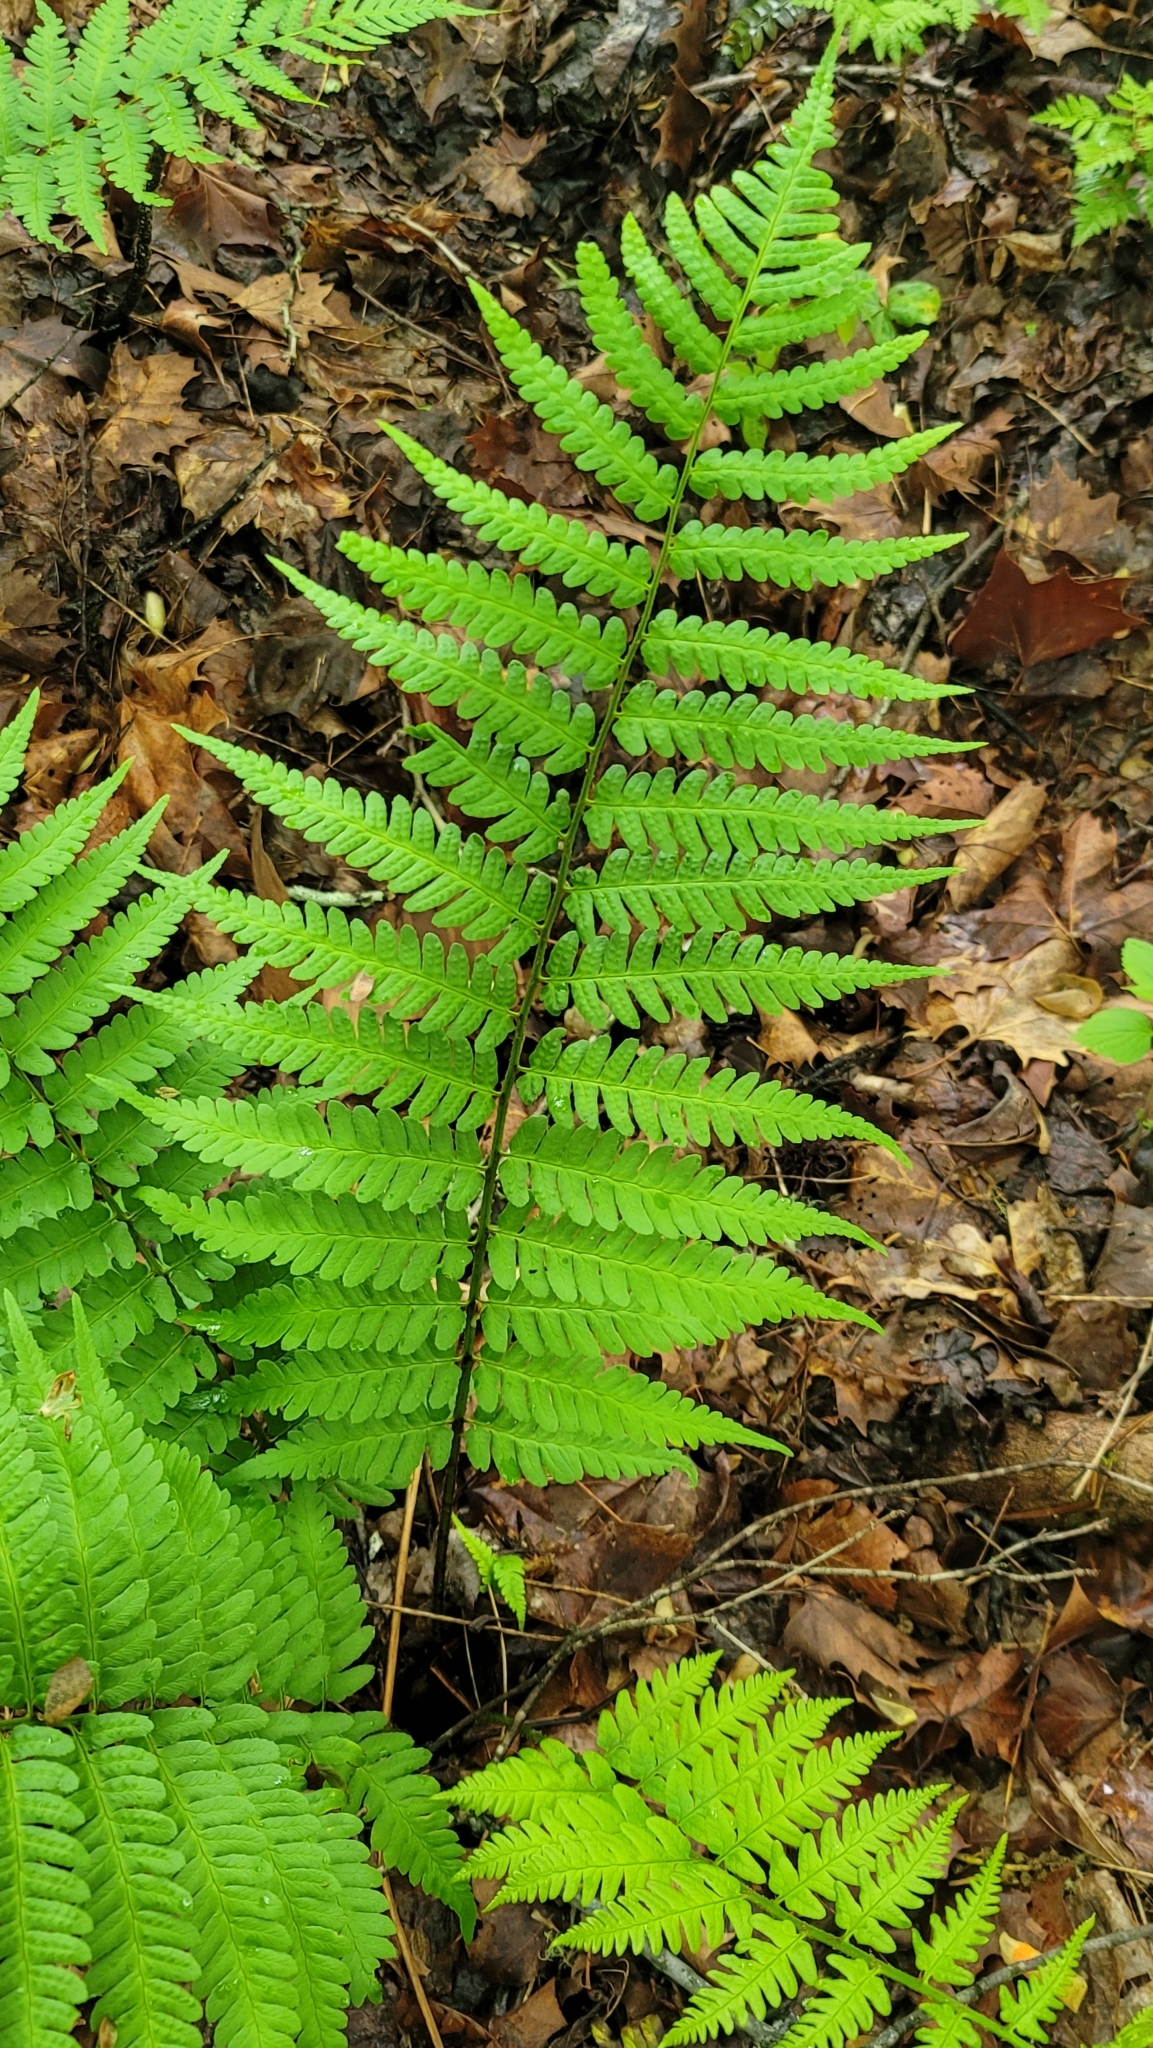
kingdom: Plantae
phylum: Tracheophyta
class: Polypodiopsida
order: Polypodiales
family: Dryopteridaceae
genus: Dryopteris
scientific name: Dryopteris celsa
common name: Log fern
